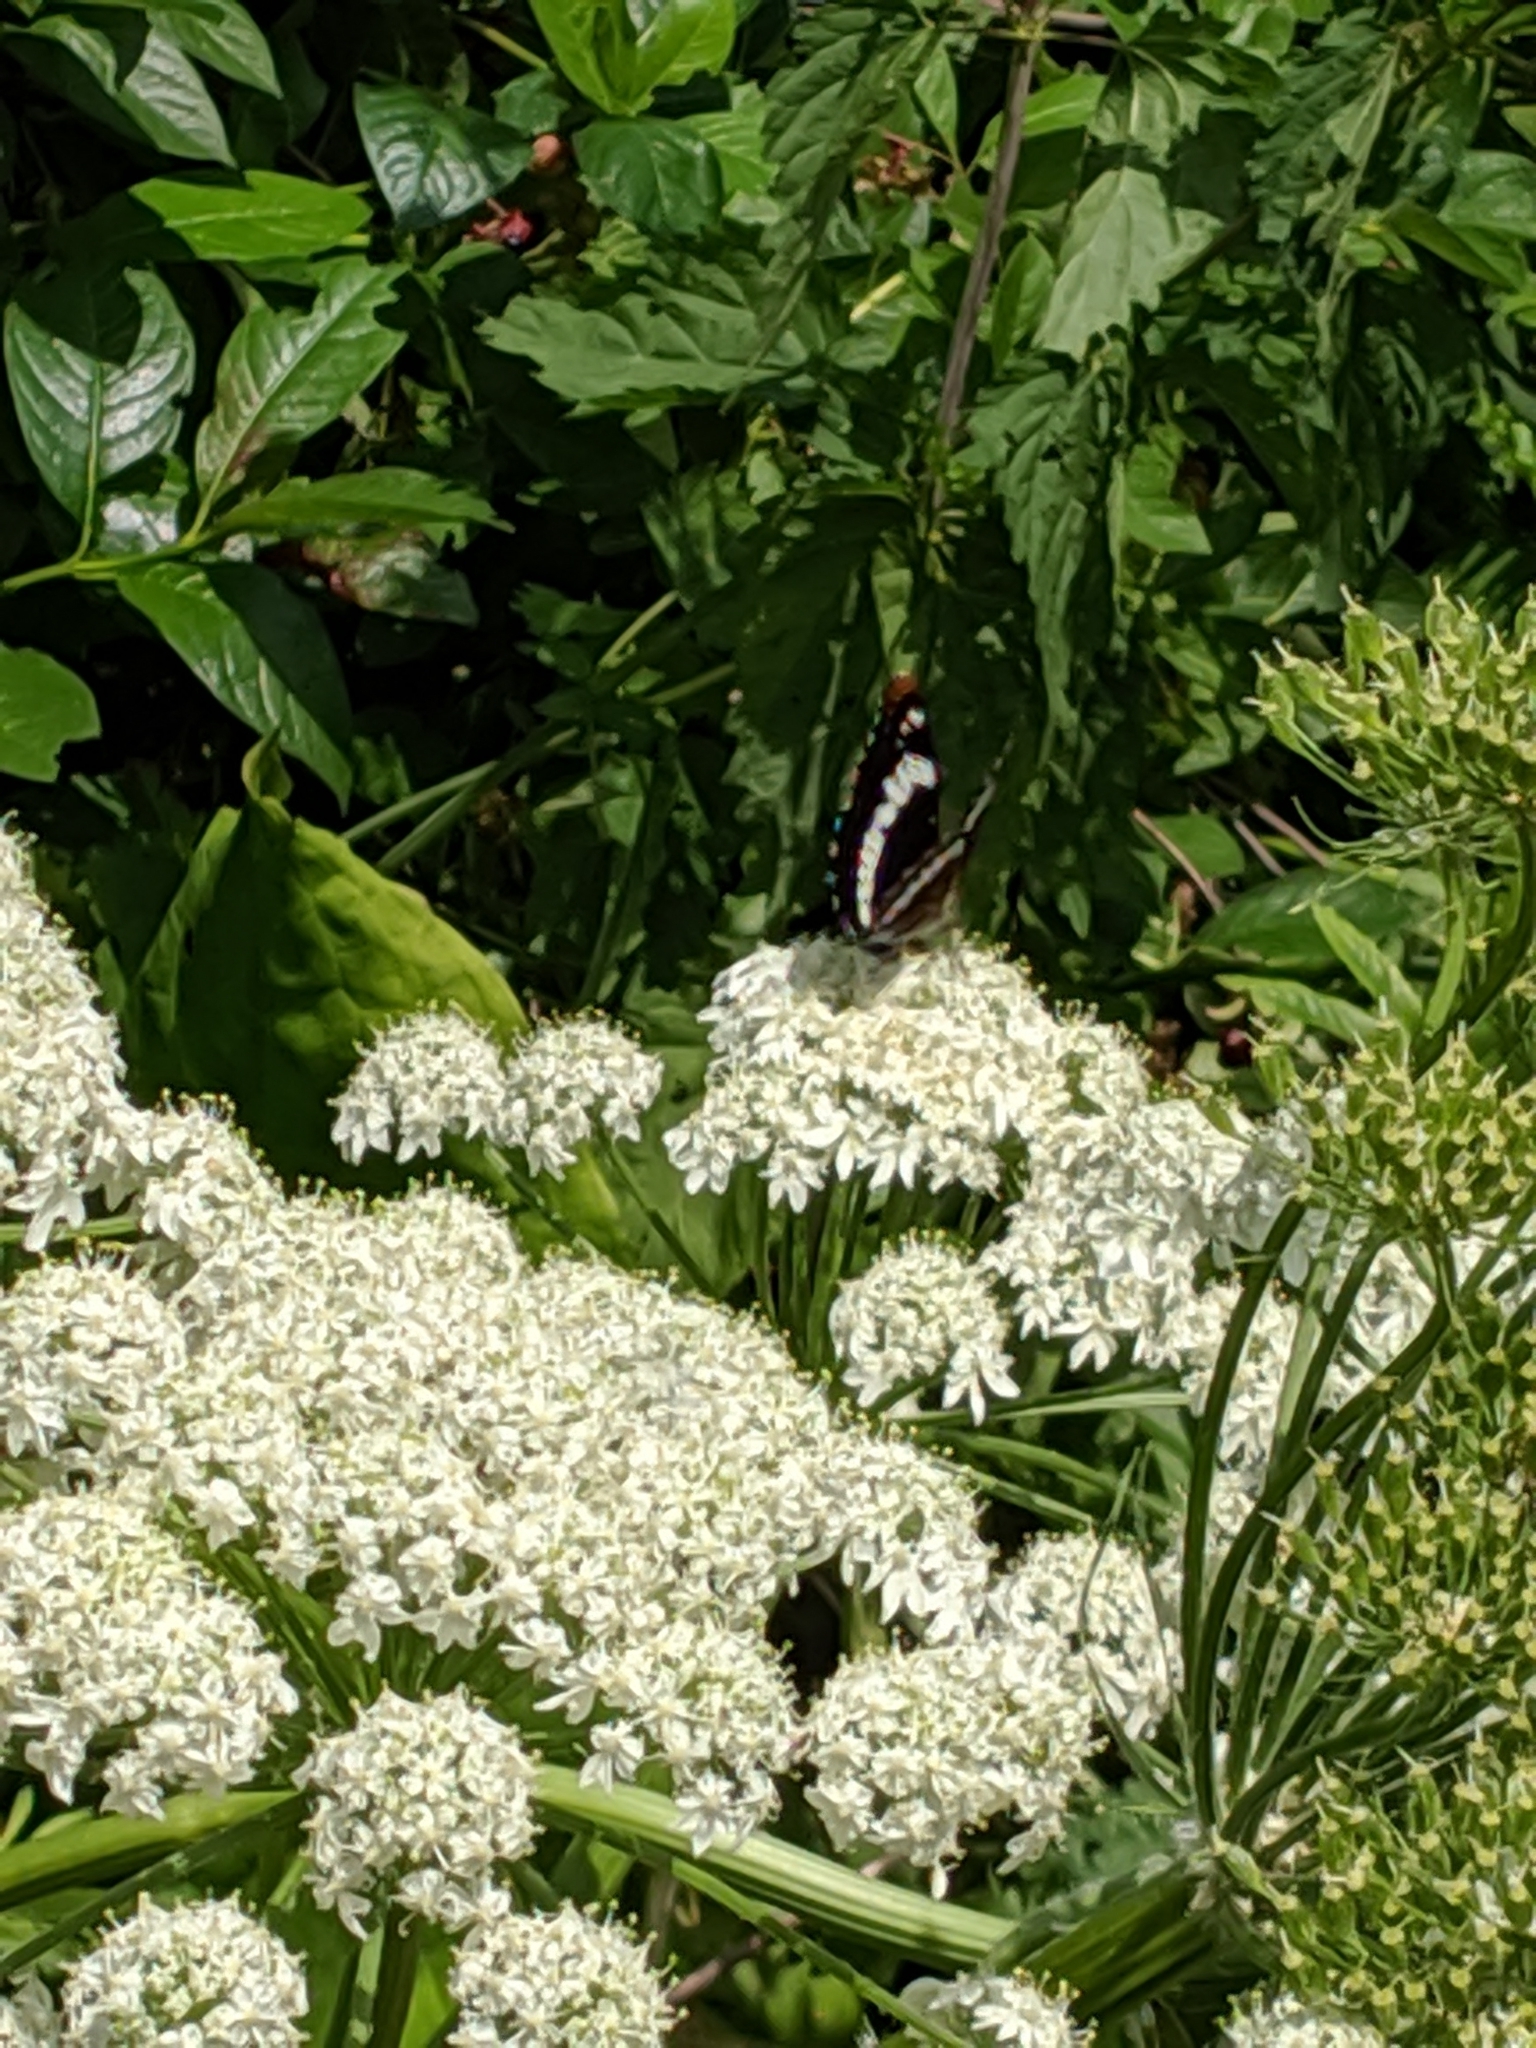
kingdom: Animalia
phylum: Arthropoda
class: Insecta
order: Lepidoptera
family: Nymphalidae
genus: Limenitis
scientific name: Limenitis lorquini
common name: Lorquin's admiral
